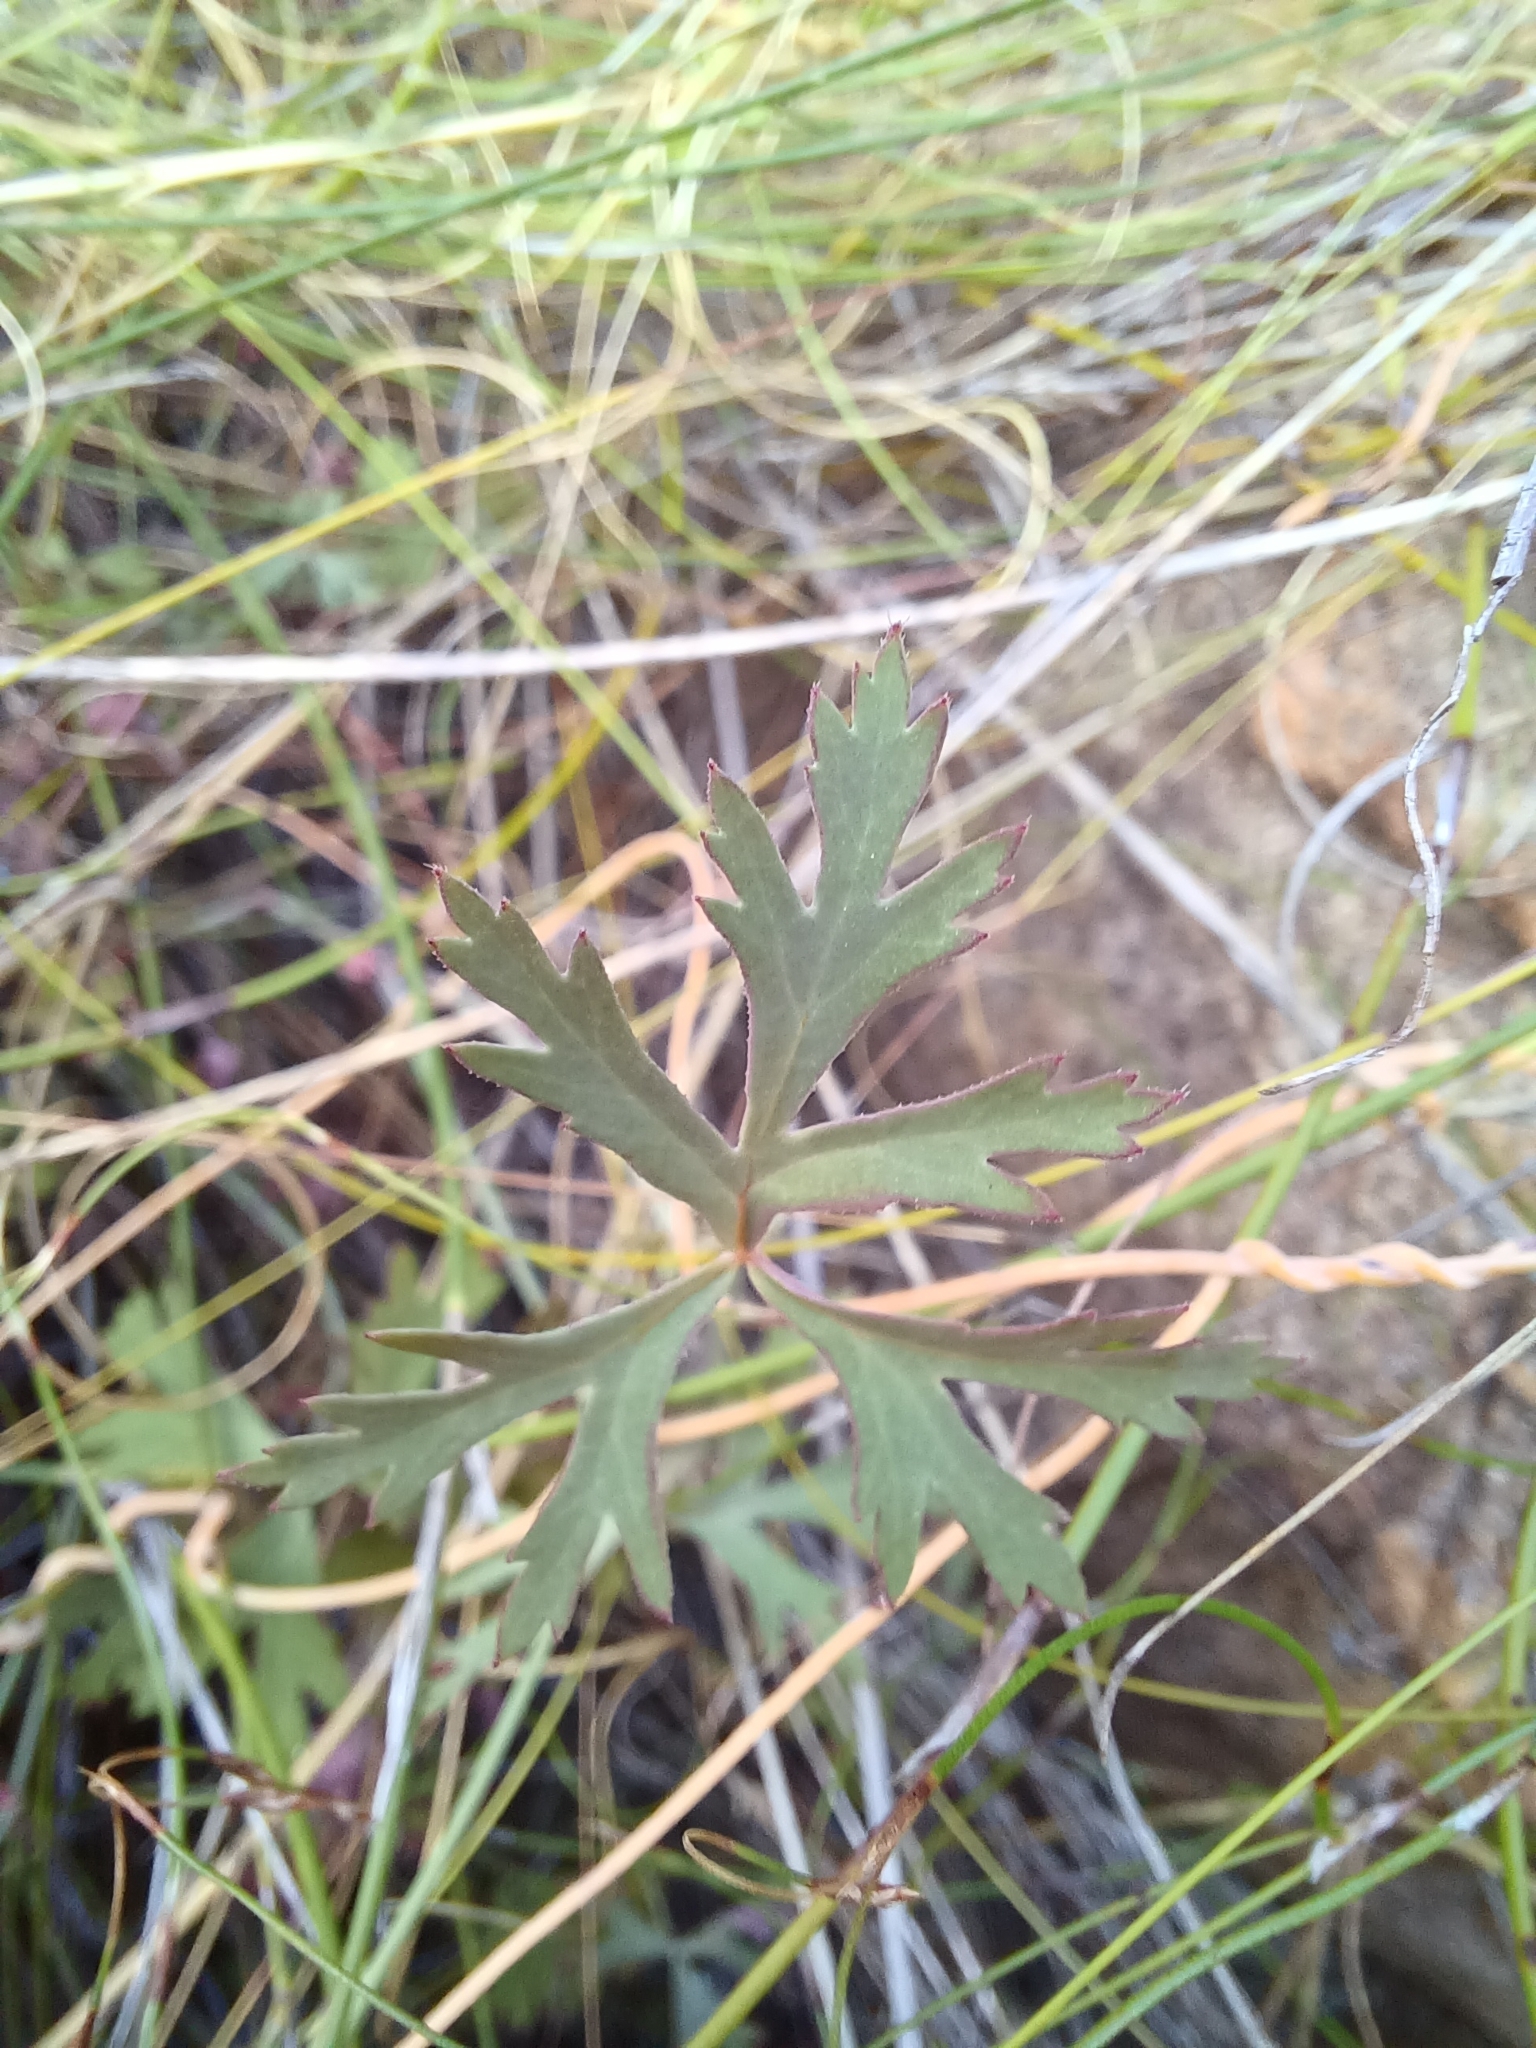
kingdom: Plantae
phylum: Tracheophyta
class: Magnoliopsida
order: Geraniales
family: Geraniaceae
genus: Pelargonium
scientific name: Pelargonium patulum
